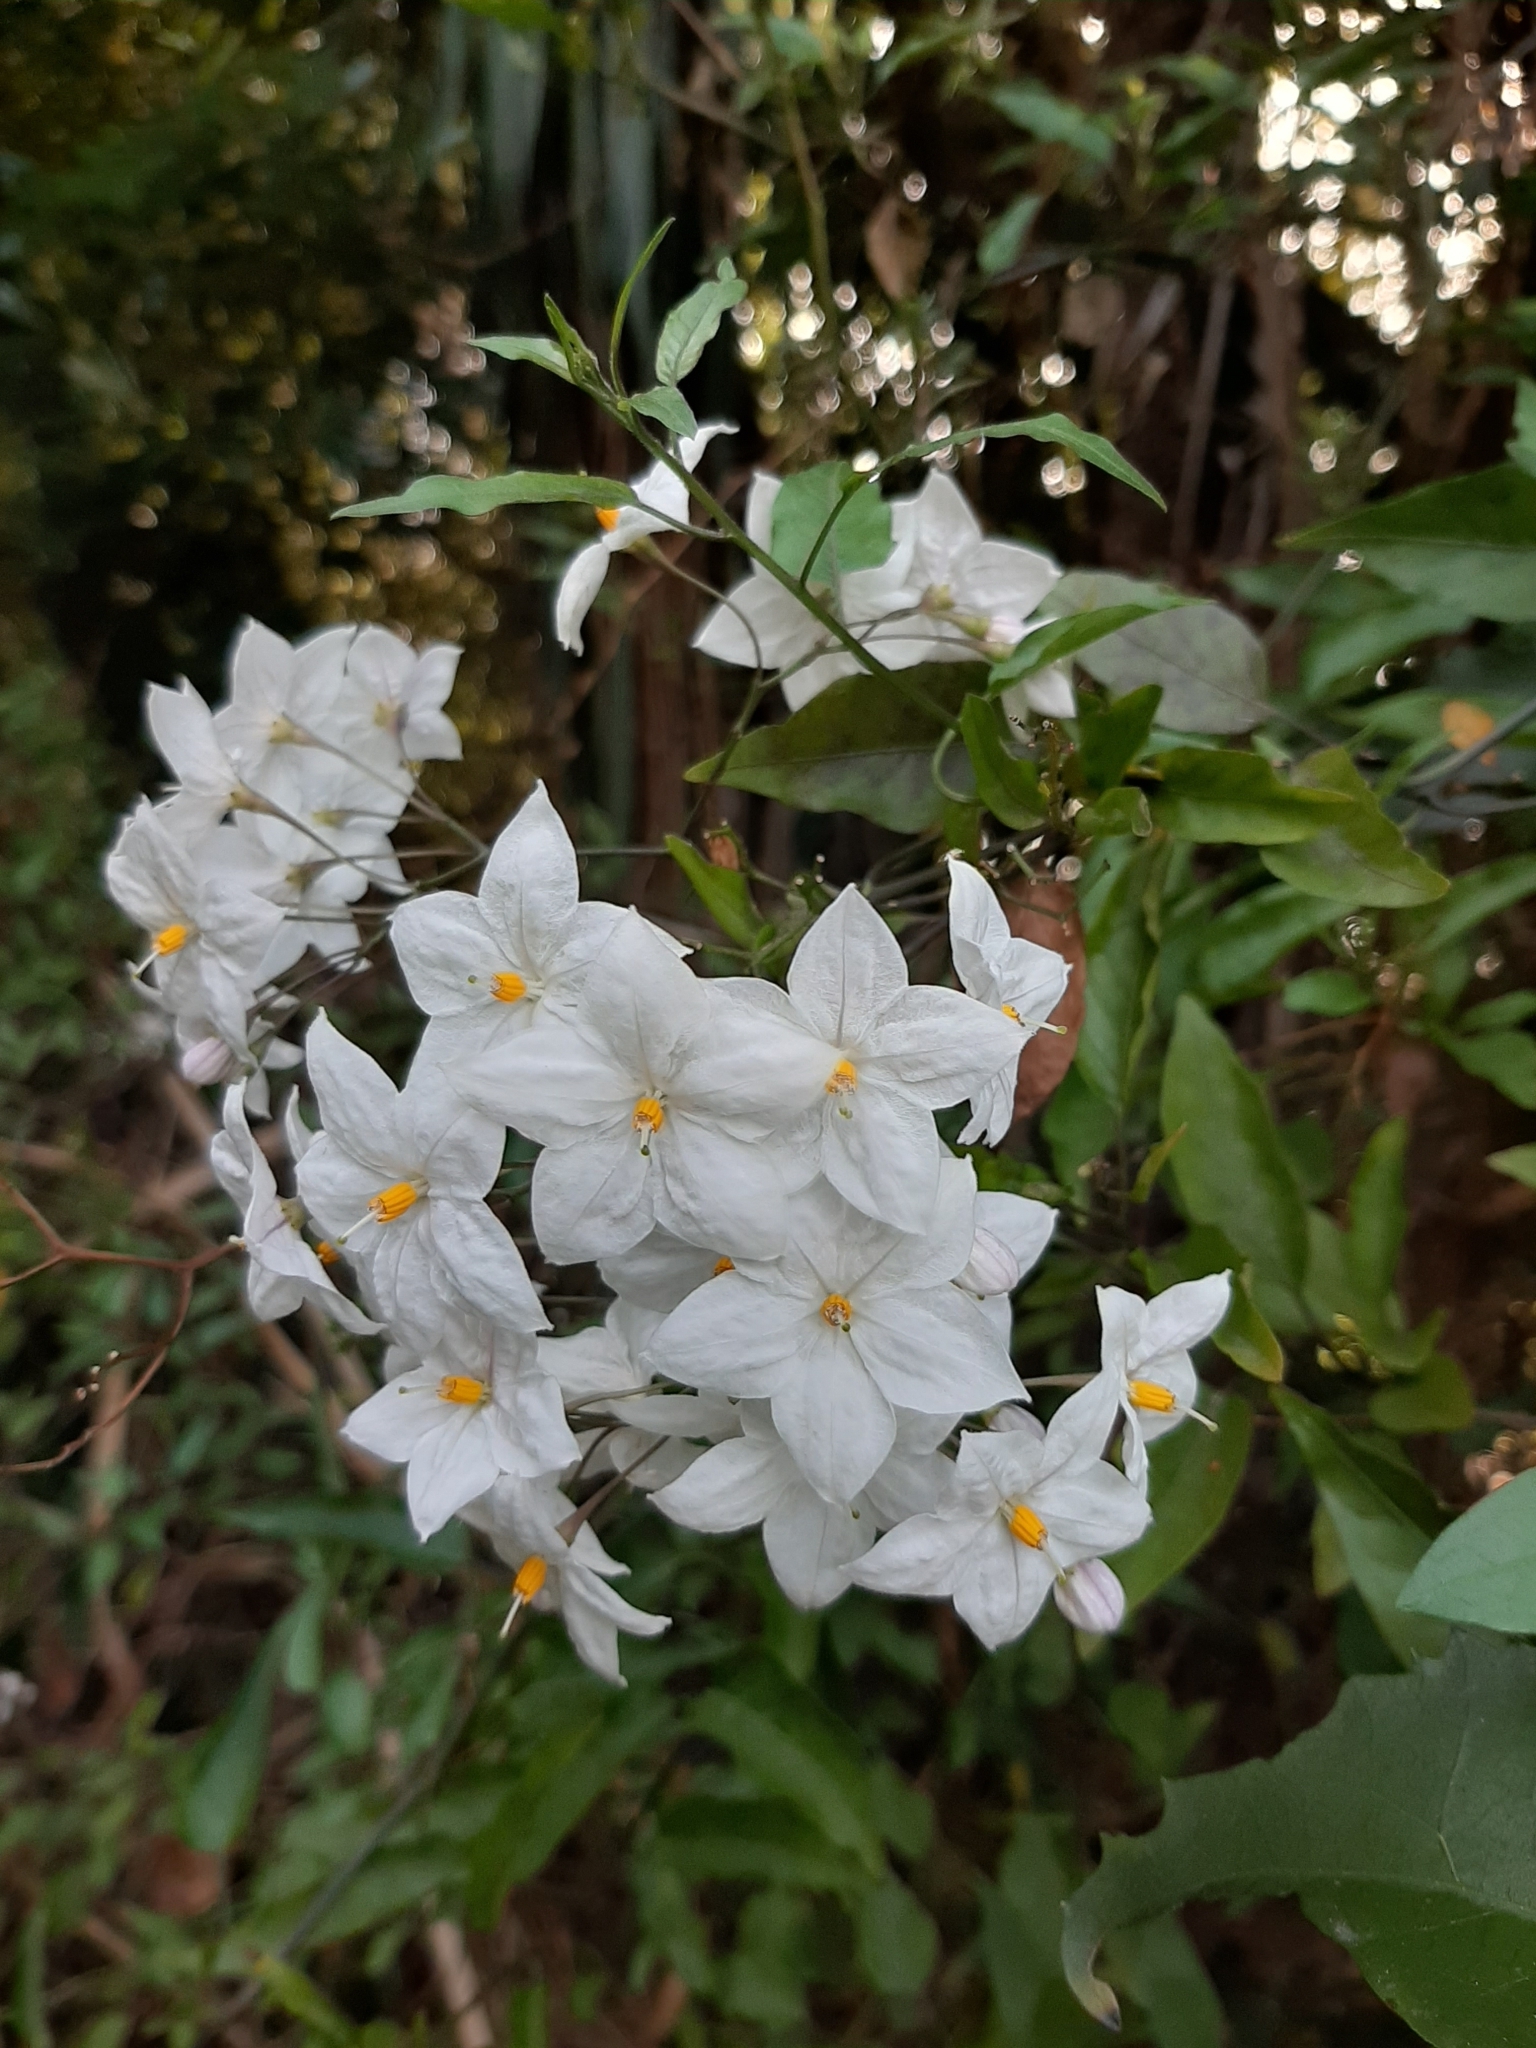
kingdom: Plantae
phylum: Tracheophyta
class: Magnoliopsida
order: Solanales
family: Solanaceae
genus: Solanum
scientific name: Solanum laxum
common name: Nightshade
